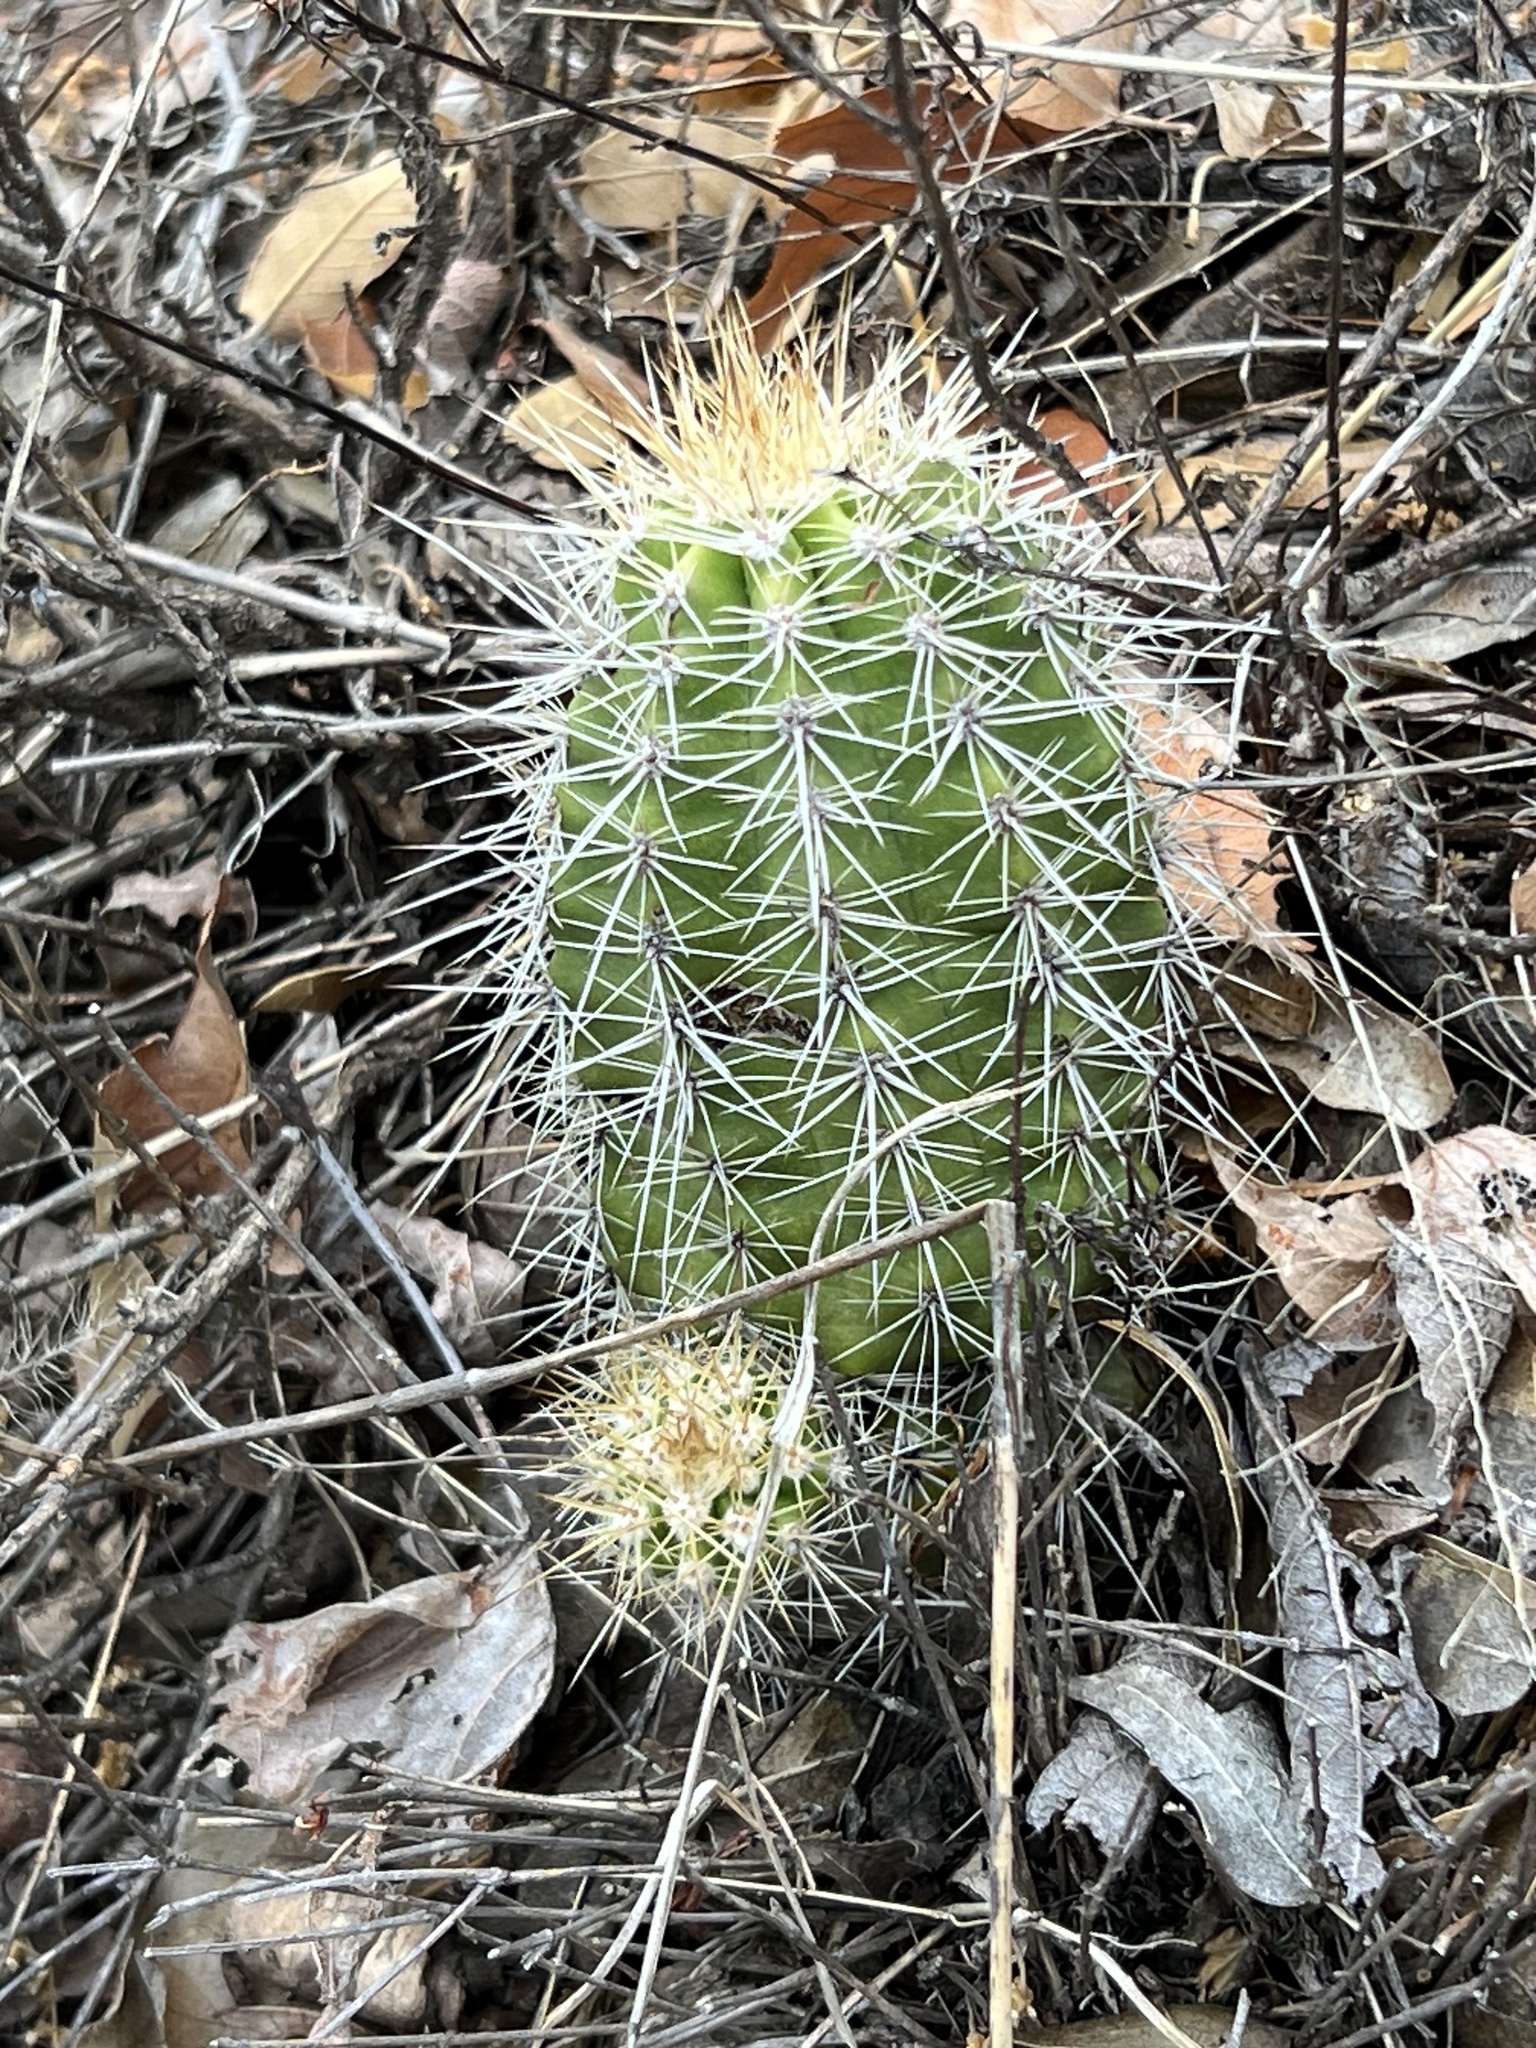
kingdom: Plantae
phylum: Tracheophyta
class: Magnoliopsida
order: Caryophyllales
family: Cactaceae
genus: Echinocereus
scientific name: Echinocereus coccineus
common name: Scarlet hedgehog cactus
